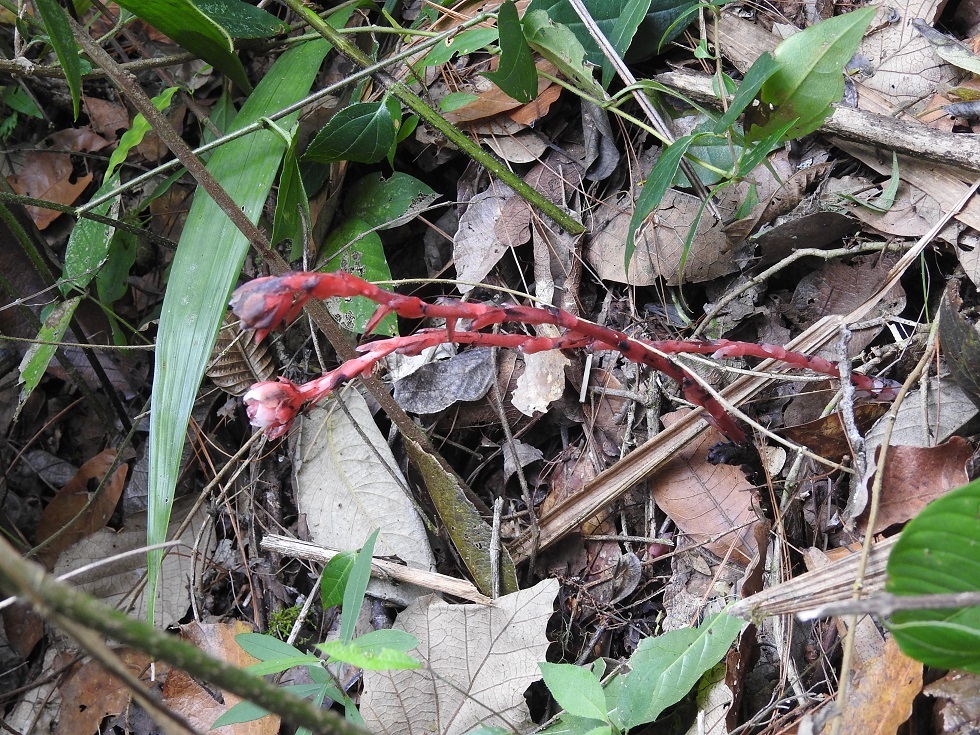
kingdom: Plantae
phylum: Tracheophyta
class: Magnoliopsida
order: Ericales
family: Ericaceae
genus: Monotropa
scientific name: Monotropa coccinea
